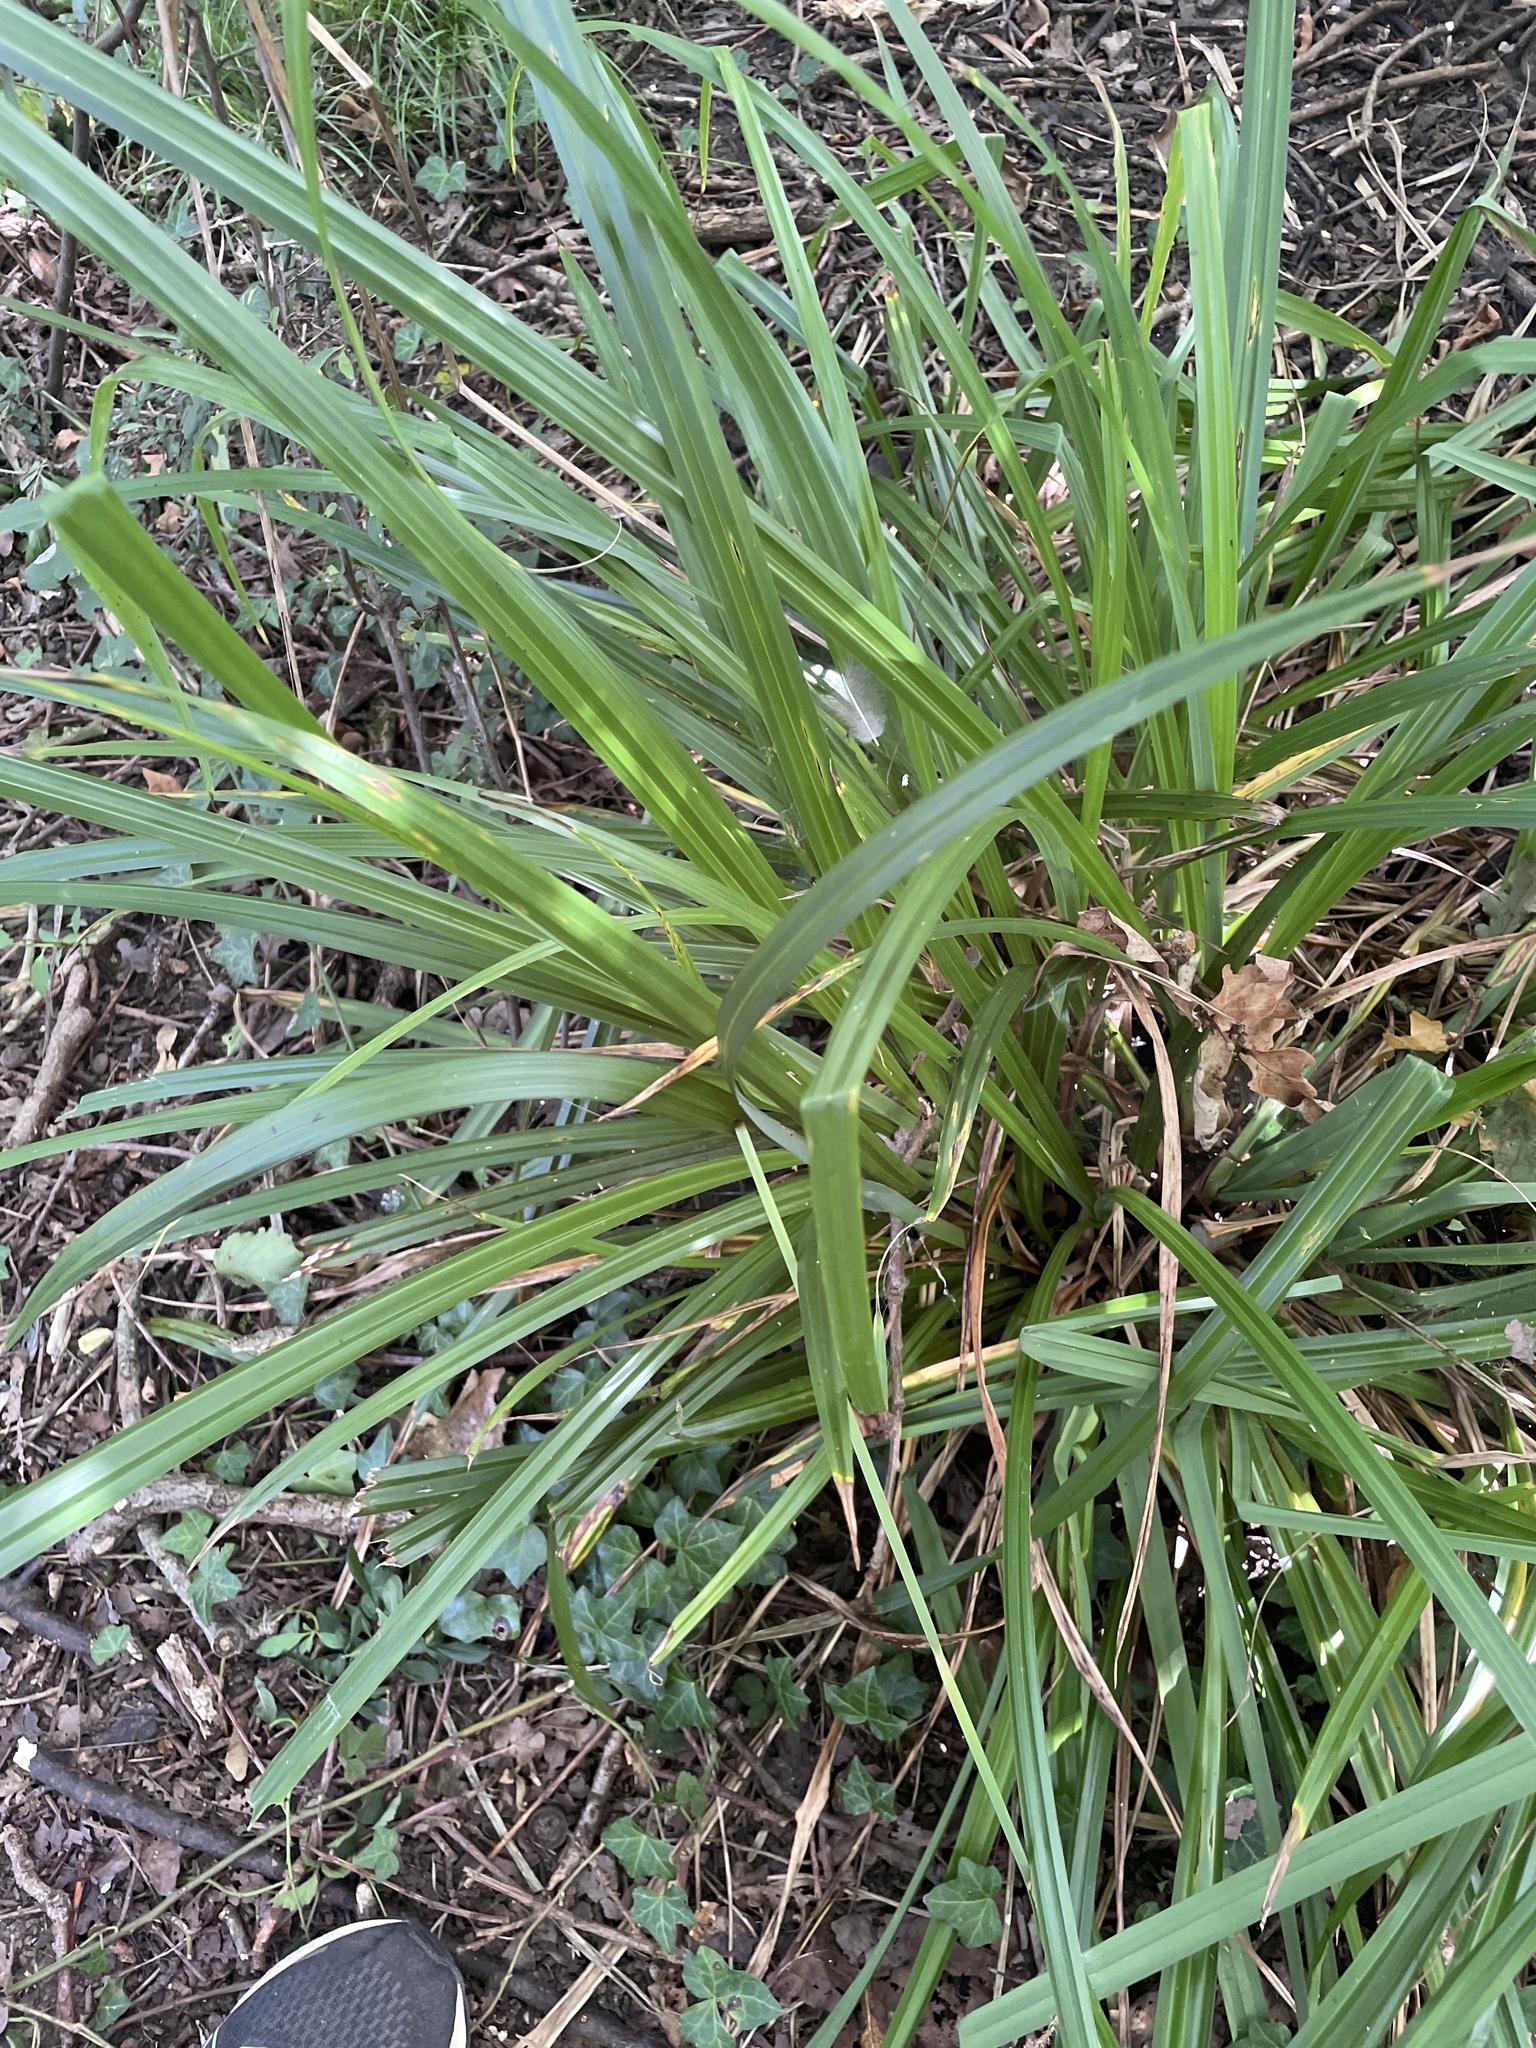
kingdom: Plantae
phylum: Tracheophyta
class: Liliopsida
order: Poales
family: Cyperaceae
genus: Carex
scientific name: Carex pendula
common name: Pendulous sedge
